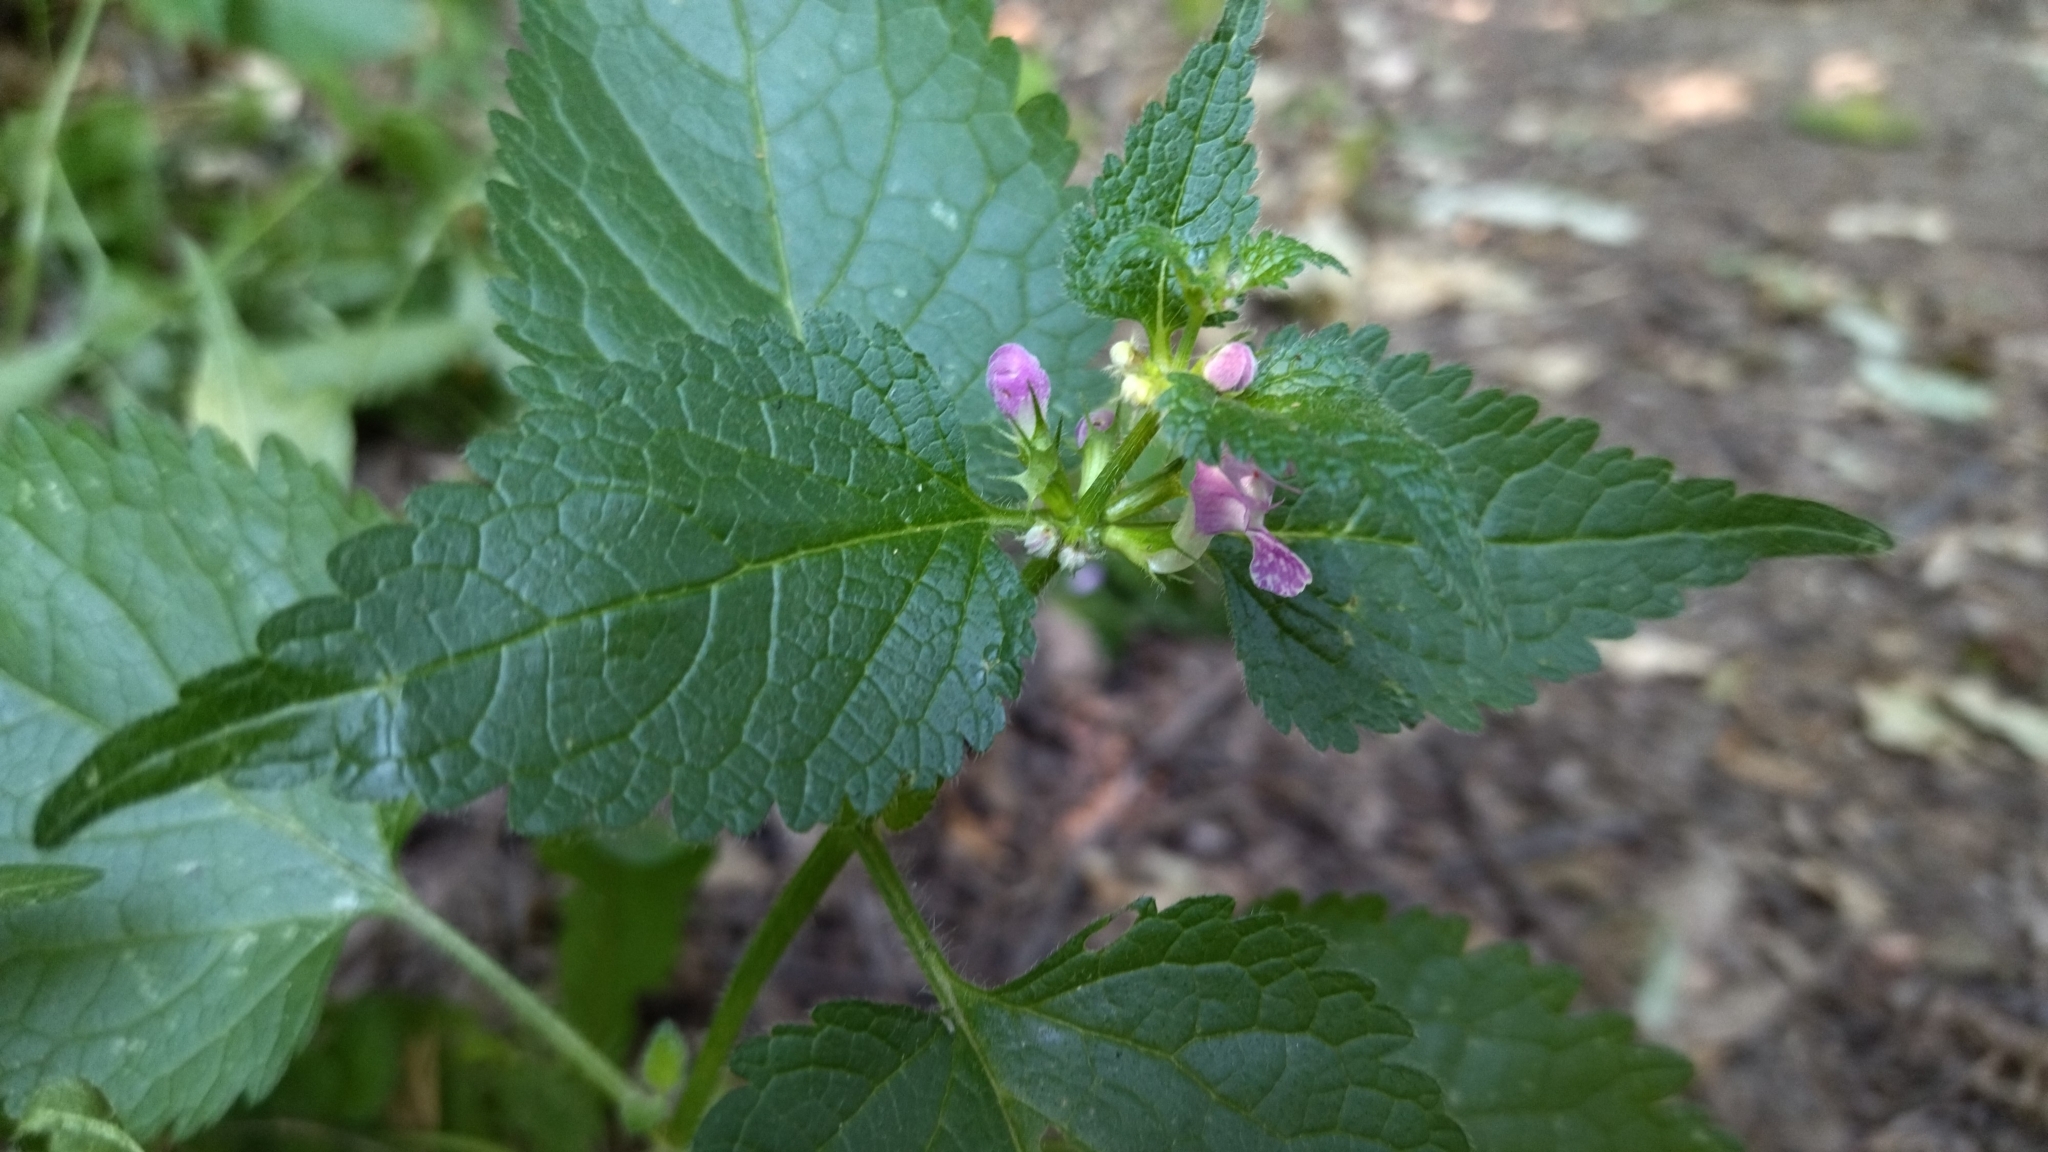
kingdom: Plantae
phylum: Tracheophyta
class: Magnoliopsida
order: Lamiales
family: Lamiaceae
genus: Lamium
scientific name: Lamium maculatum
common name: Spotted dead-nettle
